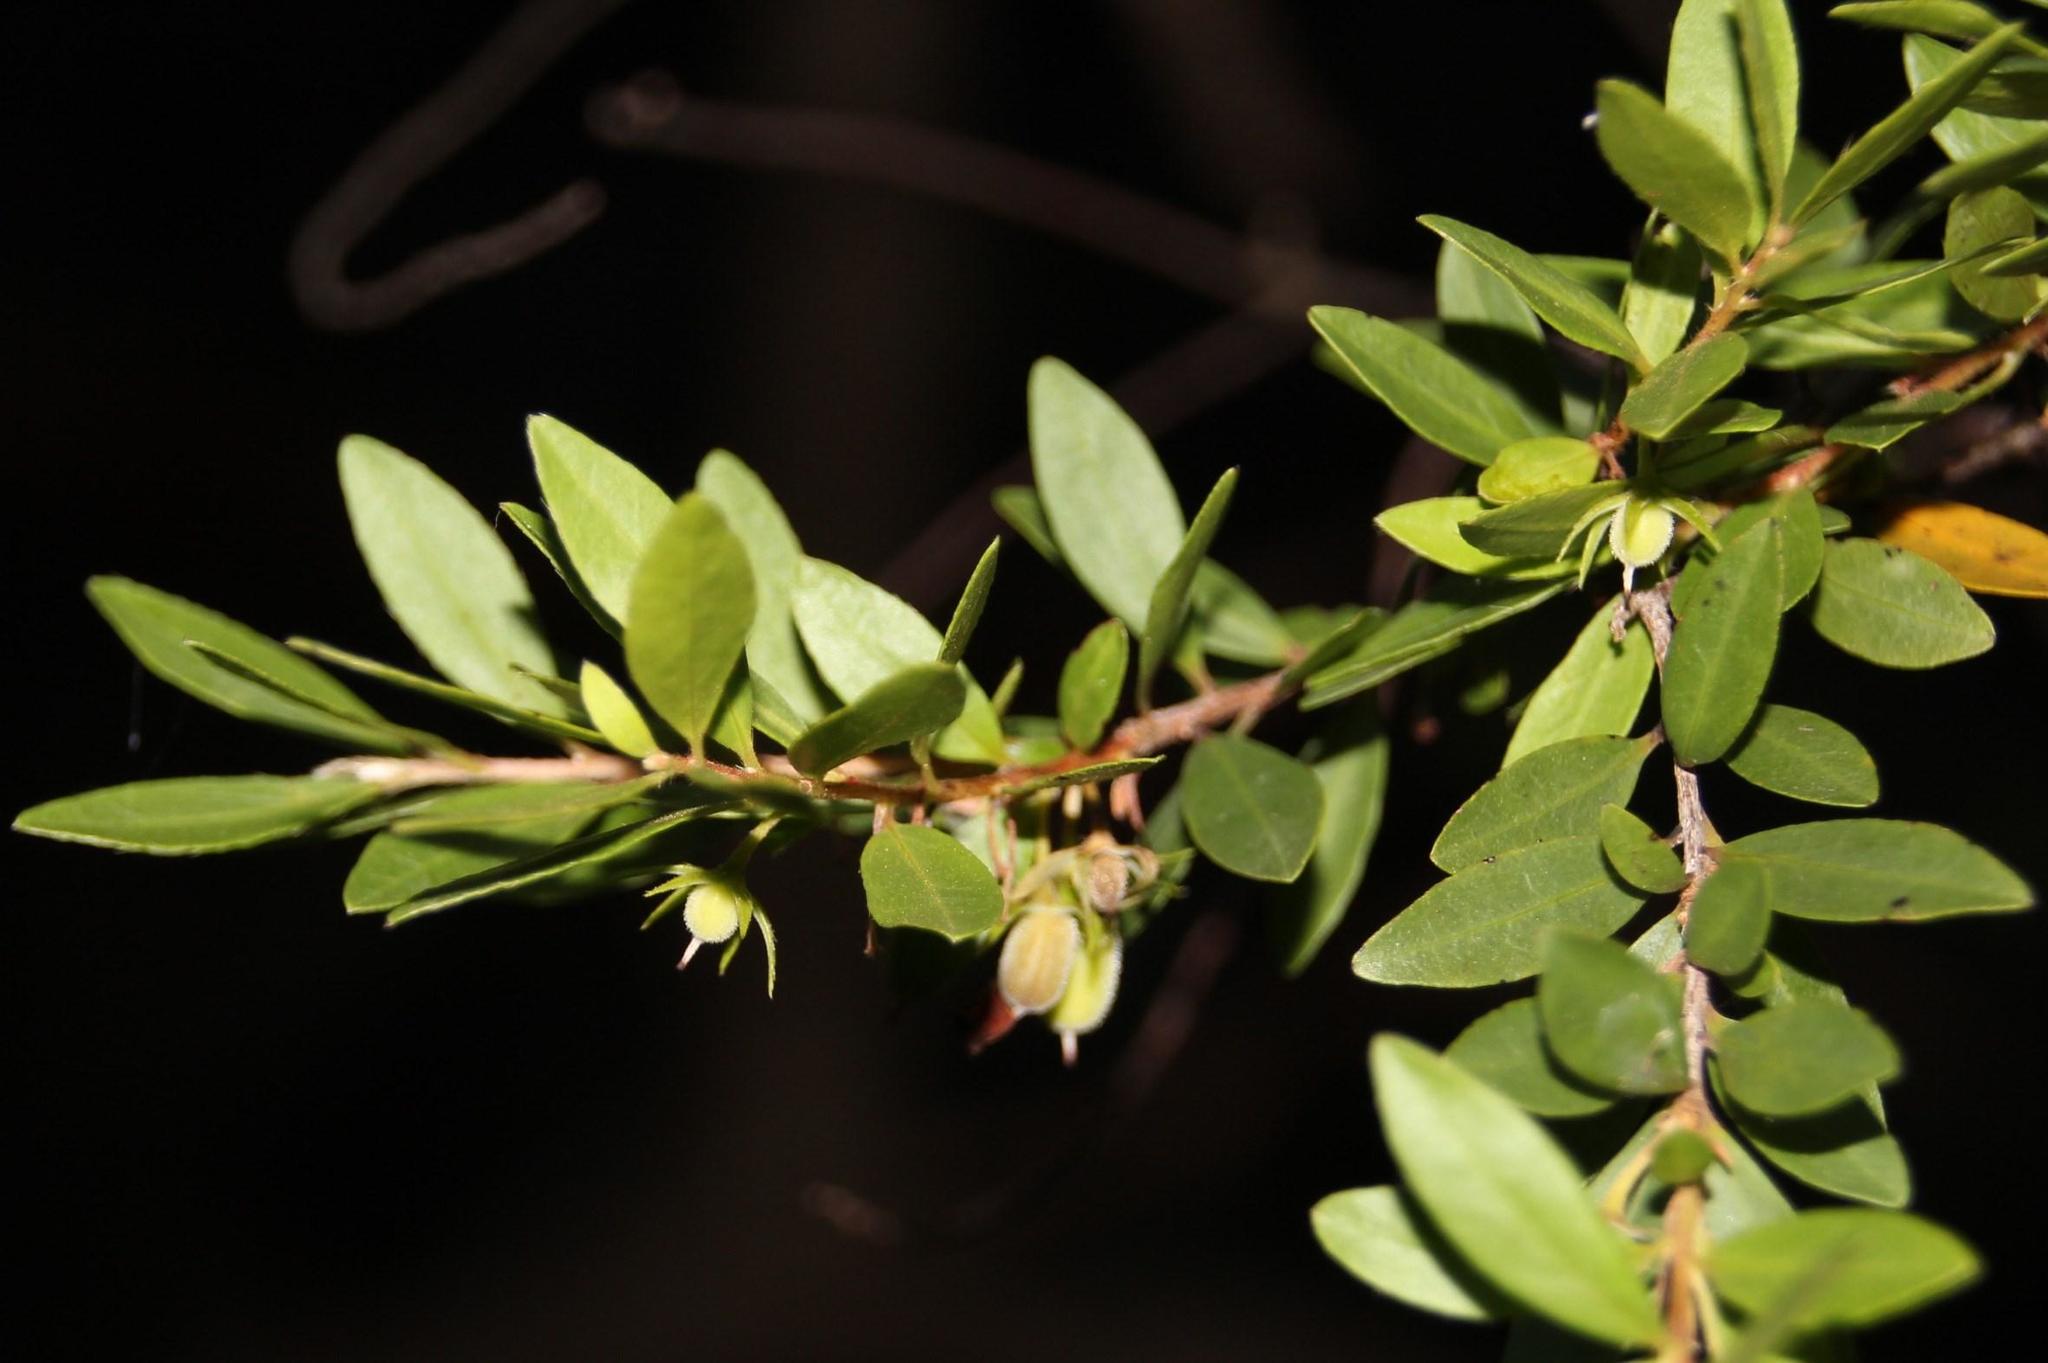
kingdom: Plantae
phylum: Tracheophyta
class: Magnoliopsida
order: Ericales
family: Ebenaceae
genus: Diospyros
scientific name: Diospyros glabra
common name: Fynbos star apple
